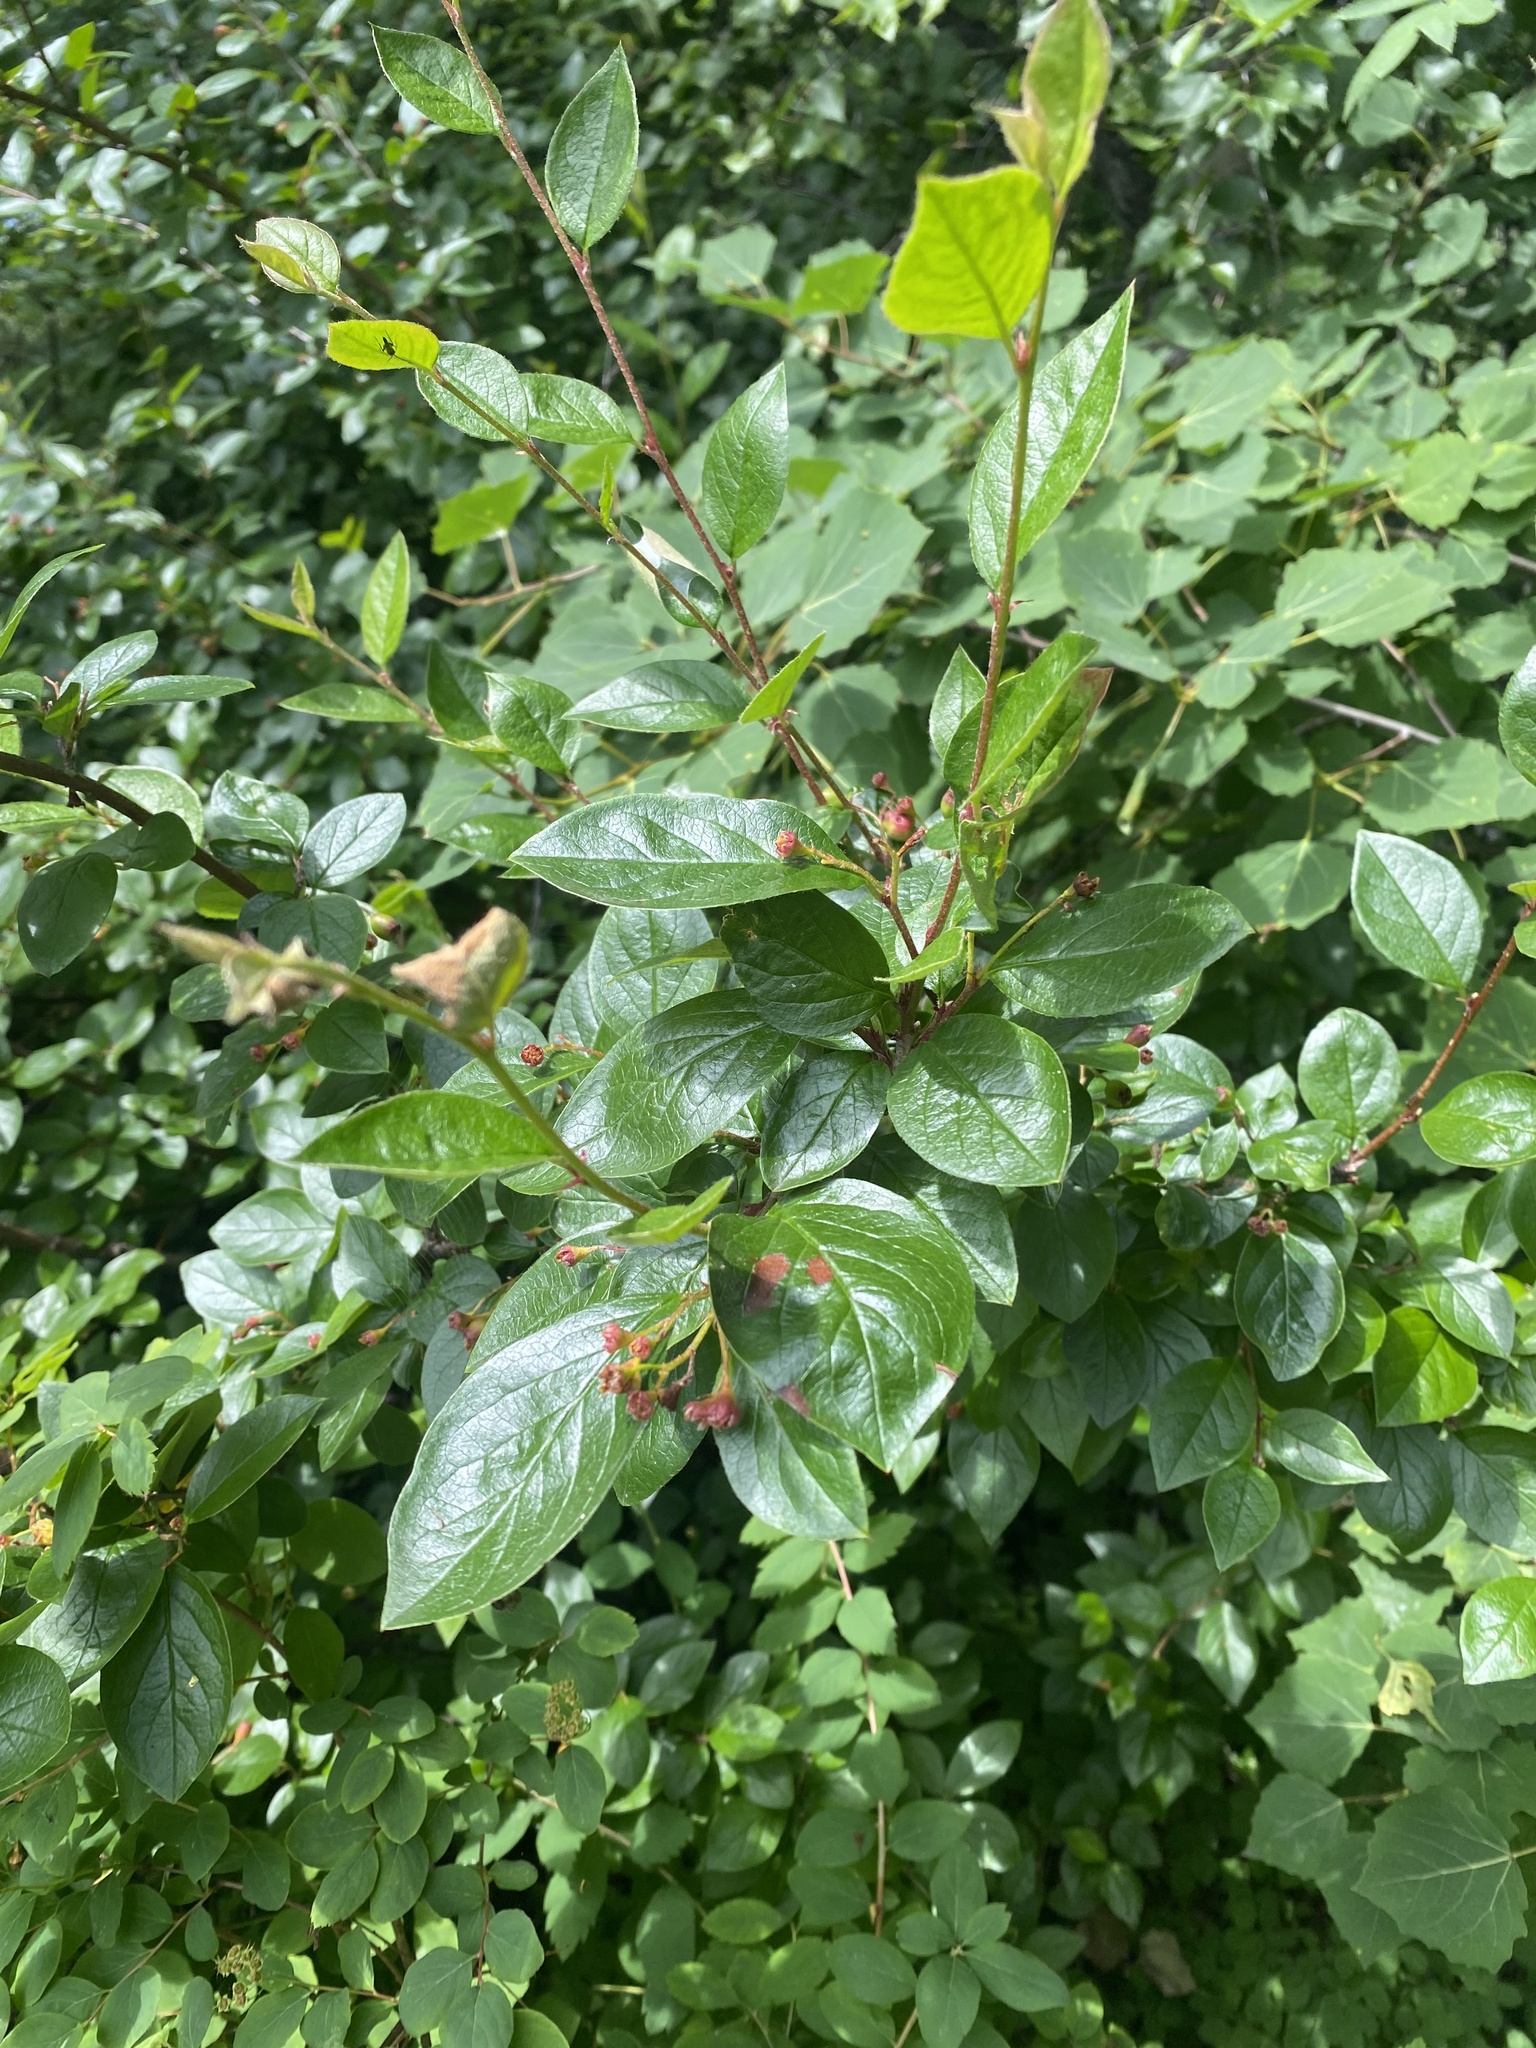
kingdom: Plantae
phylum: Tracheophyta
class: Magnoliopsida
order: Rosales
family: Rosaceae
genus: Cotoneaster
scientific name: Cotoneaster acutifolius
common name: Peking cotoneaster
